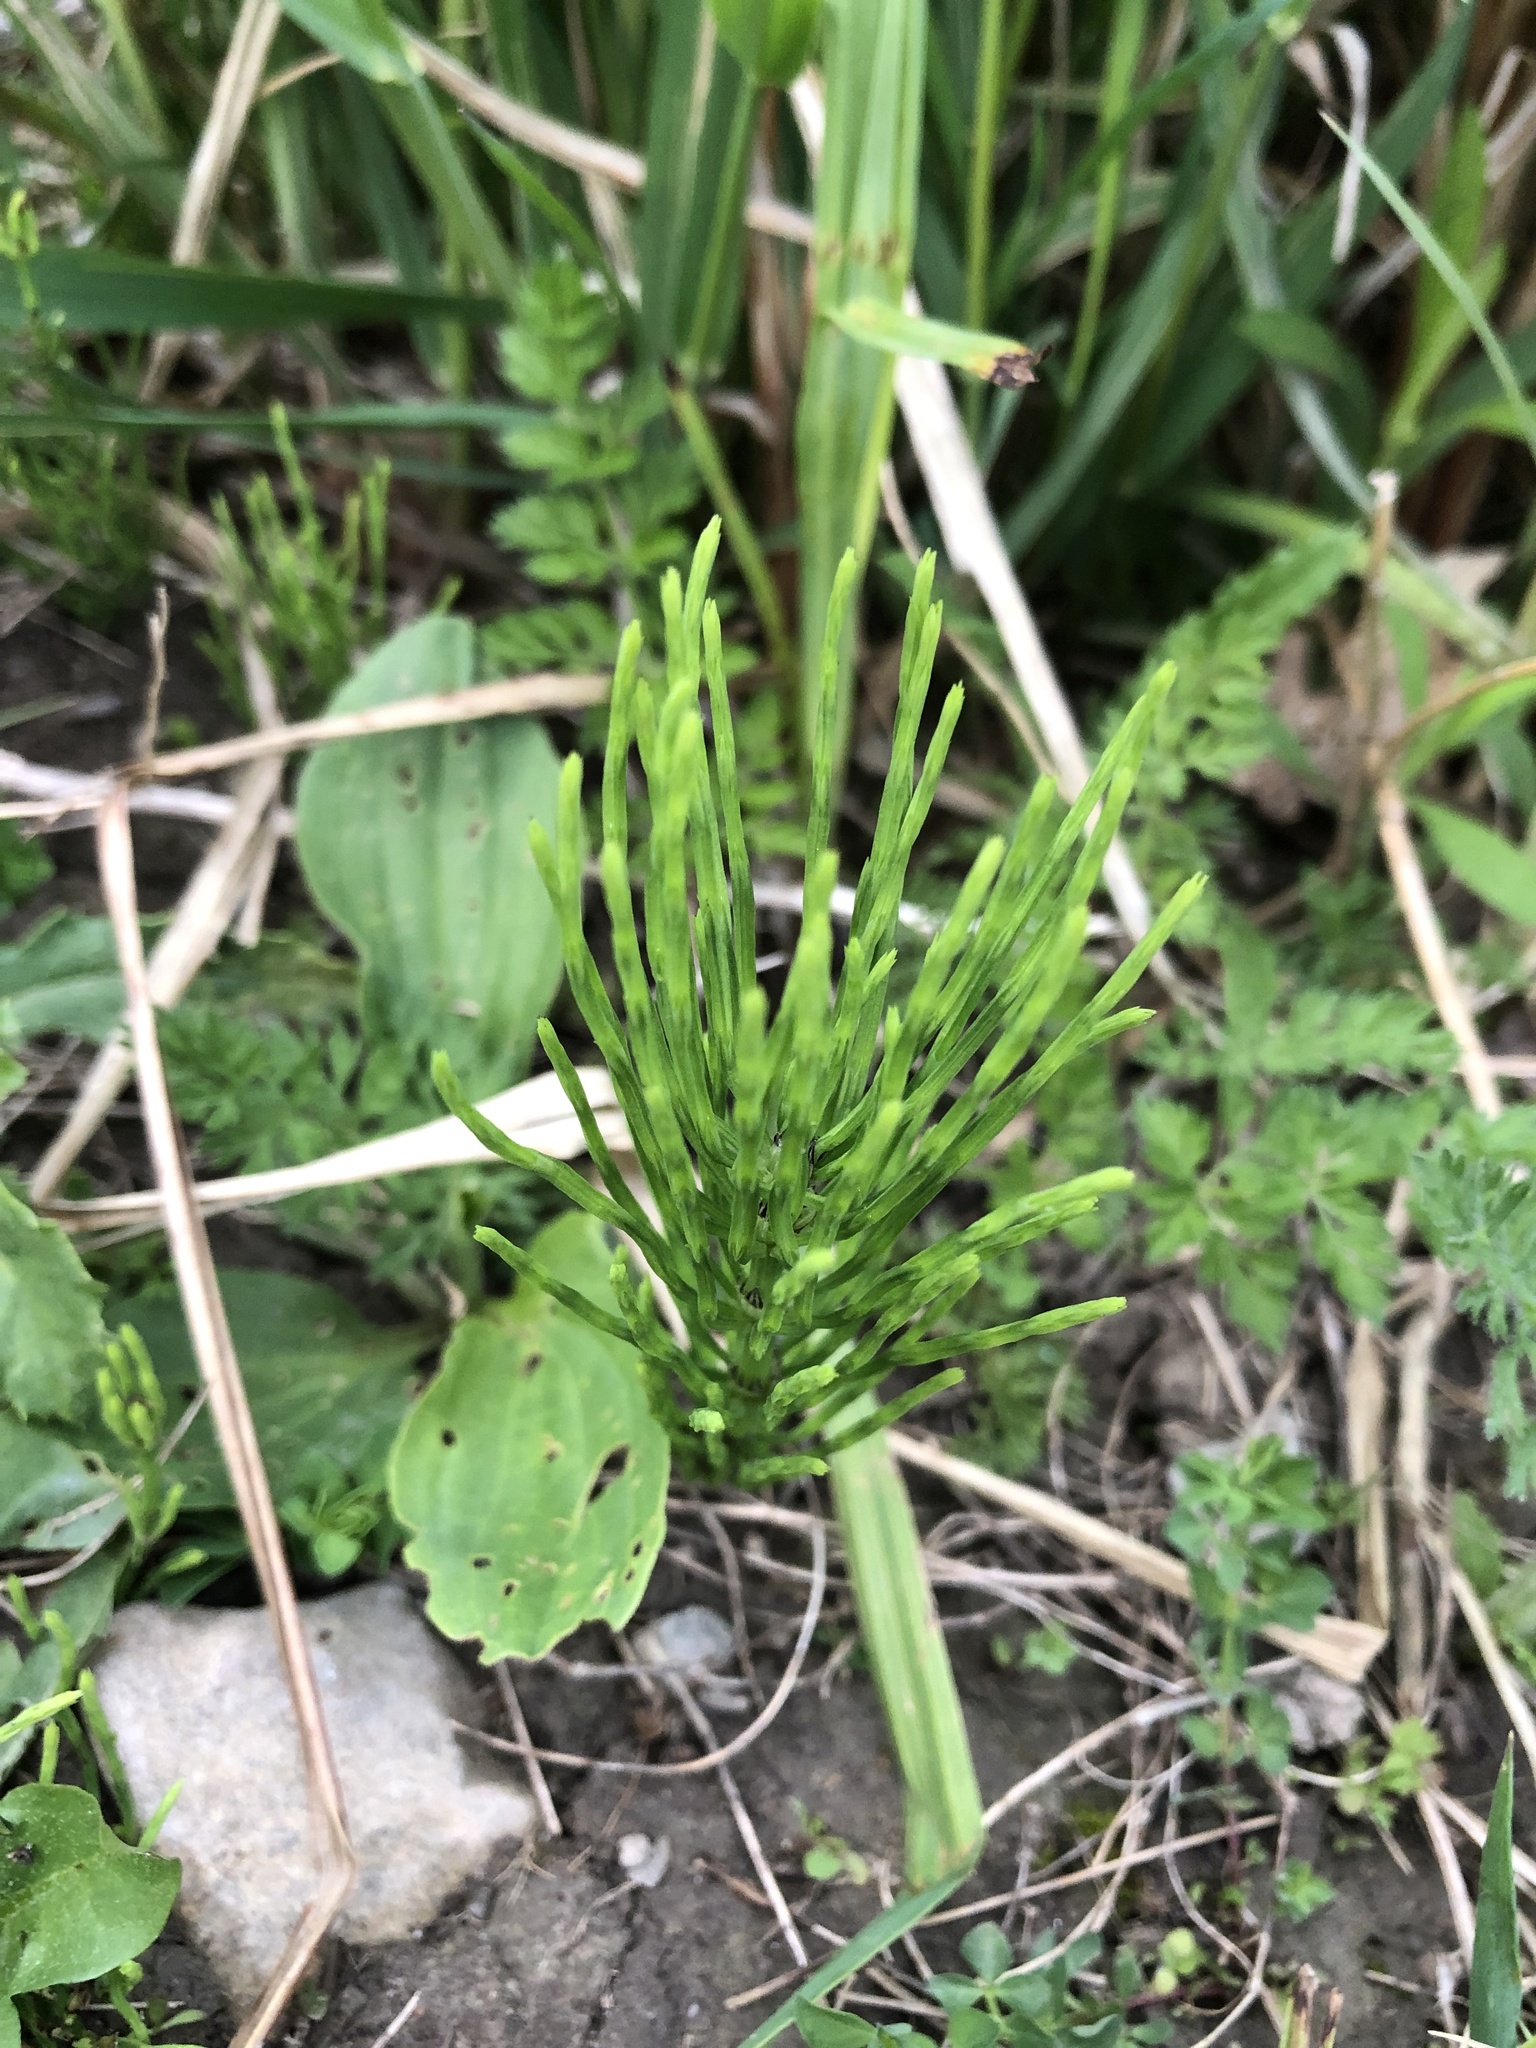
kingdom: Plantae
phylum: Tracheophyta
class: Polypodiopsida
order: Equisetales
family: Equisetaceae
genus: Equisetum
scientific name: Equisetum arvense
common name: Field horsetail
